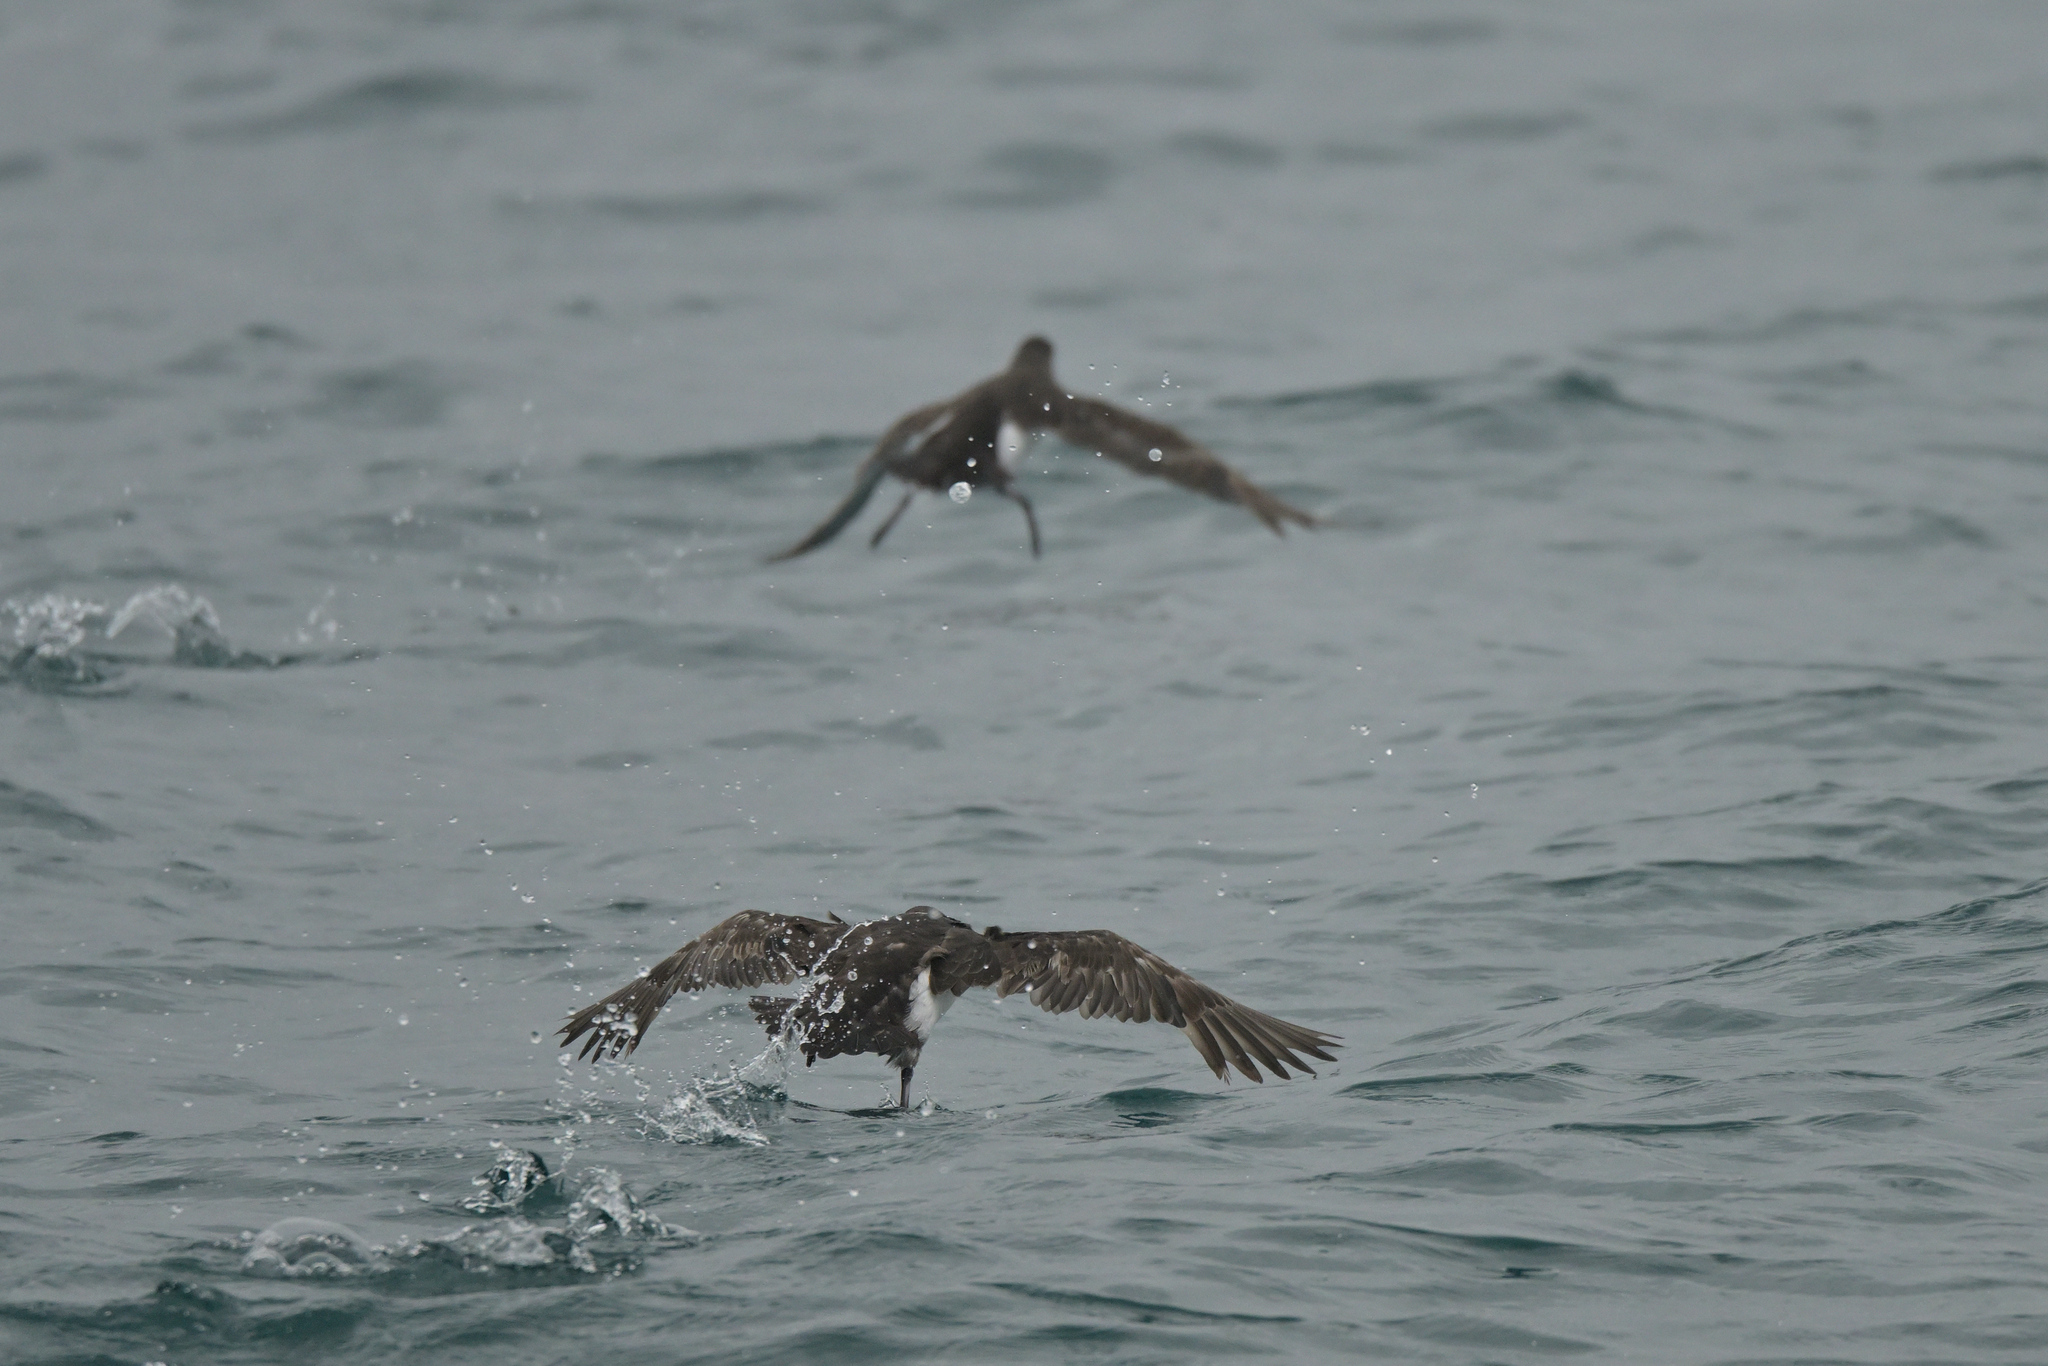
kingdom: Animalia
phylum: Chordata
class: Aves
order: Procellariiformes
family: Procellariidae
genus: Puffinus
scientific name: Puffinus gavia
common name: Fluttering shearwater
